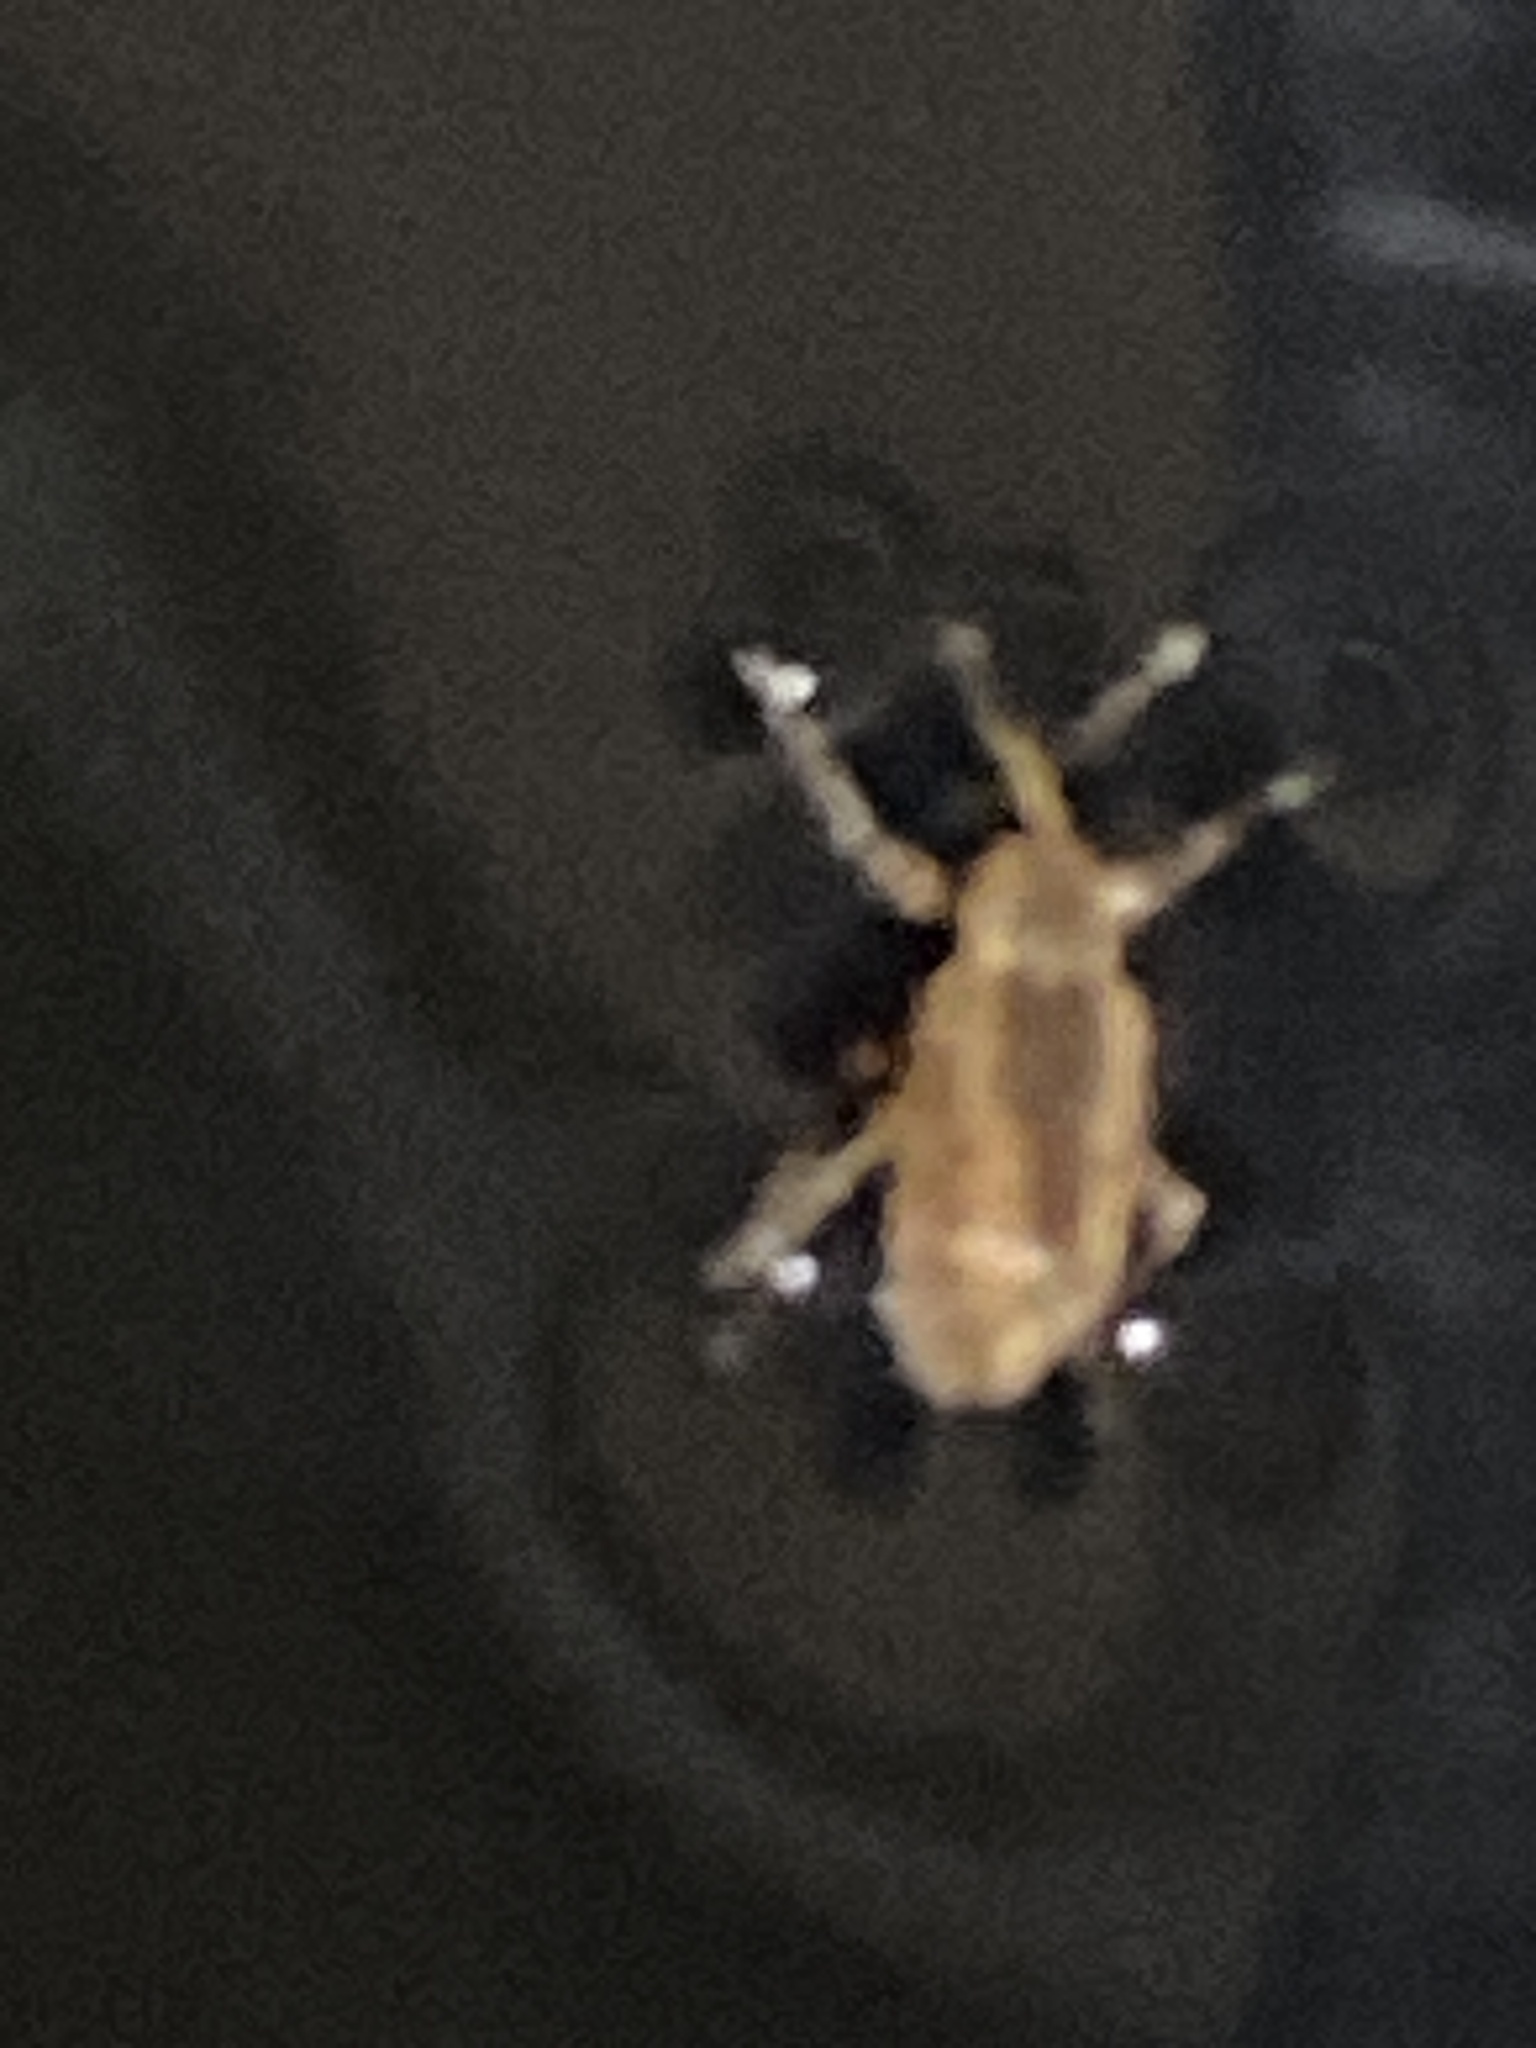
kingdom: Animalia
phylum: Arthropoda
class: Insecta
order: Coleoptera
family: Curculionidae
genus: Hypera
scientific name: Hypera postica
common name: Weevil
